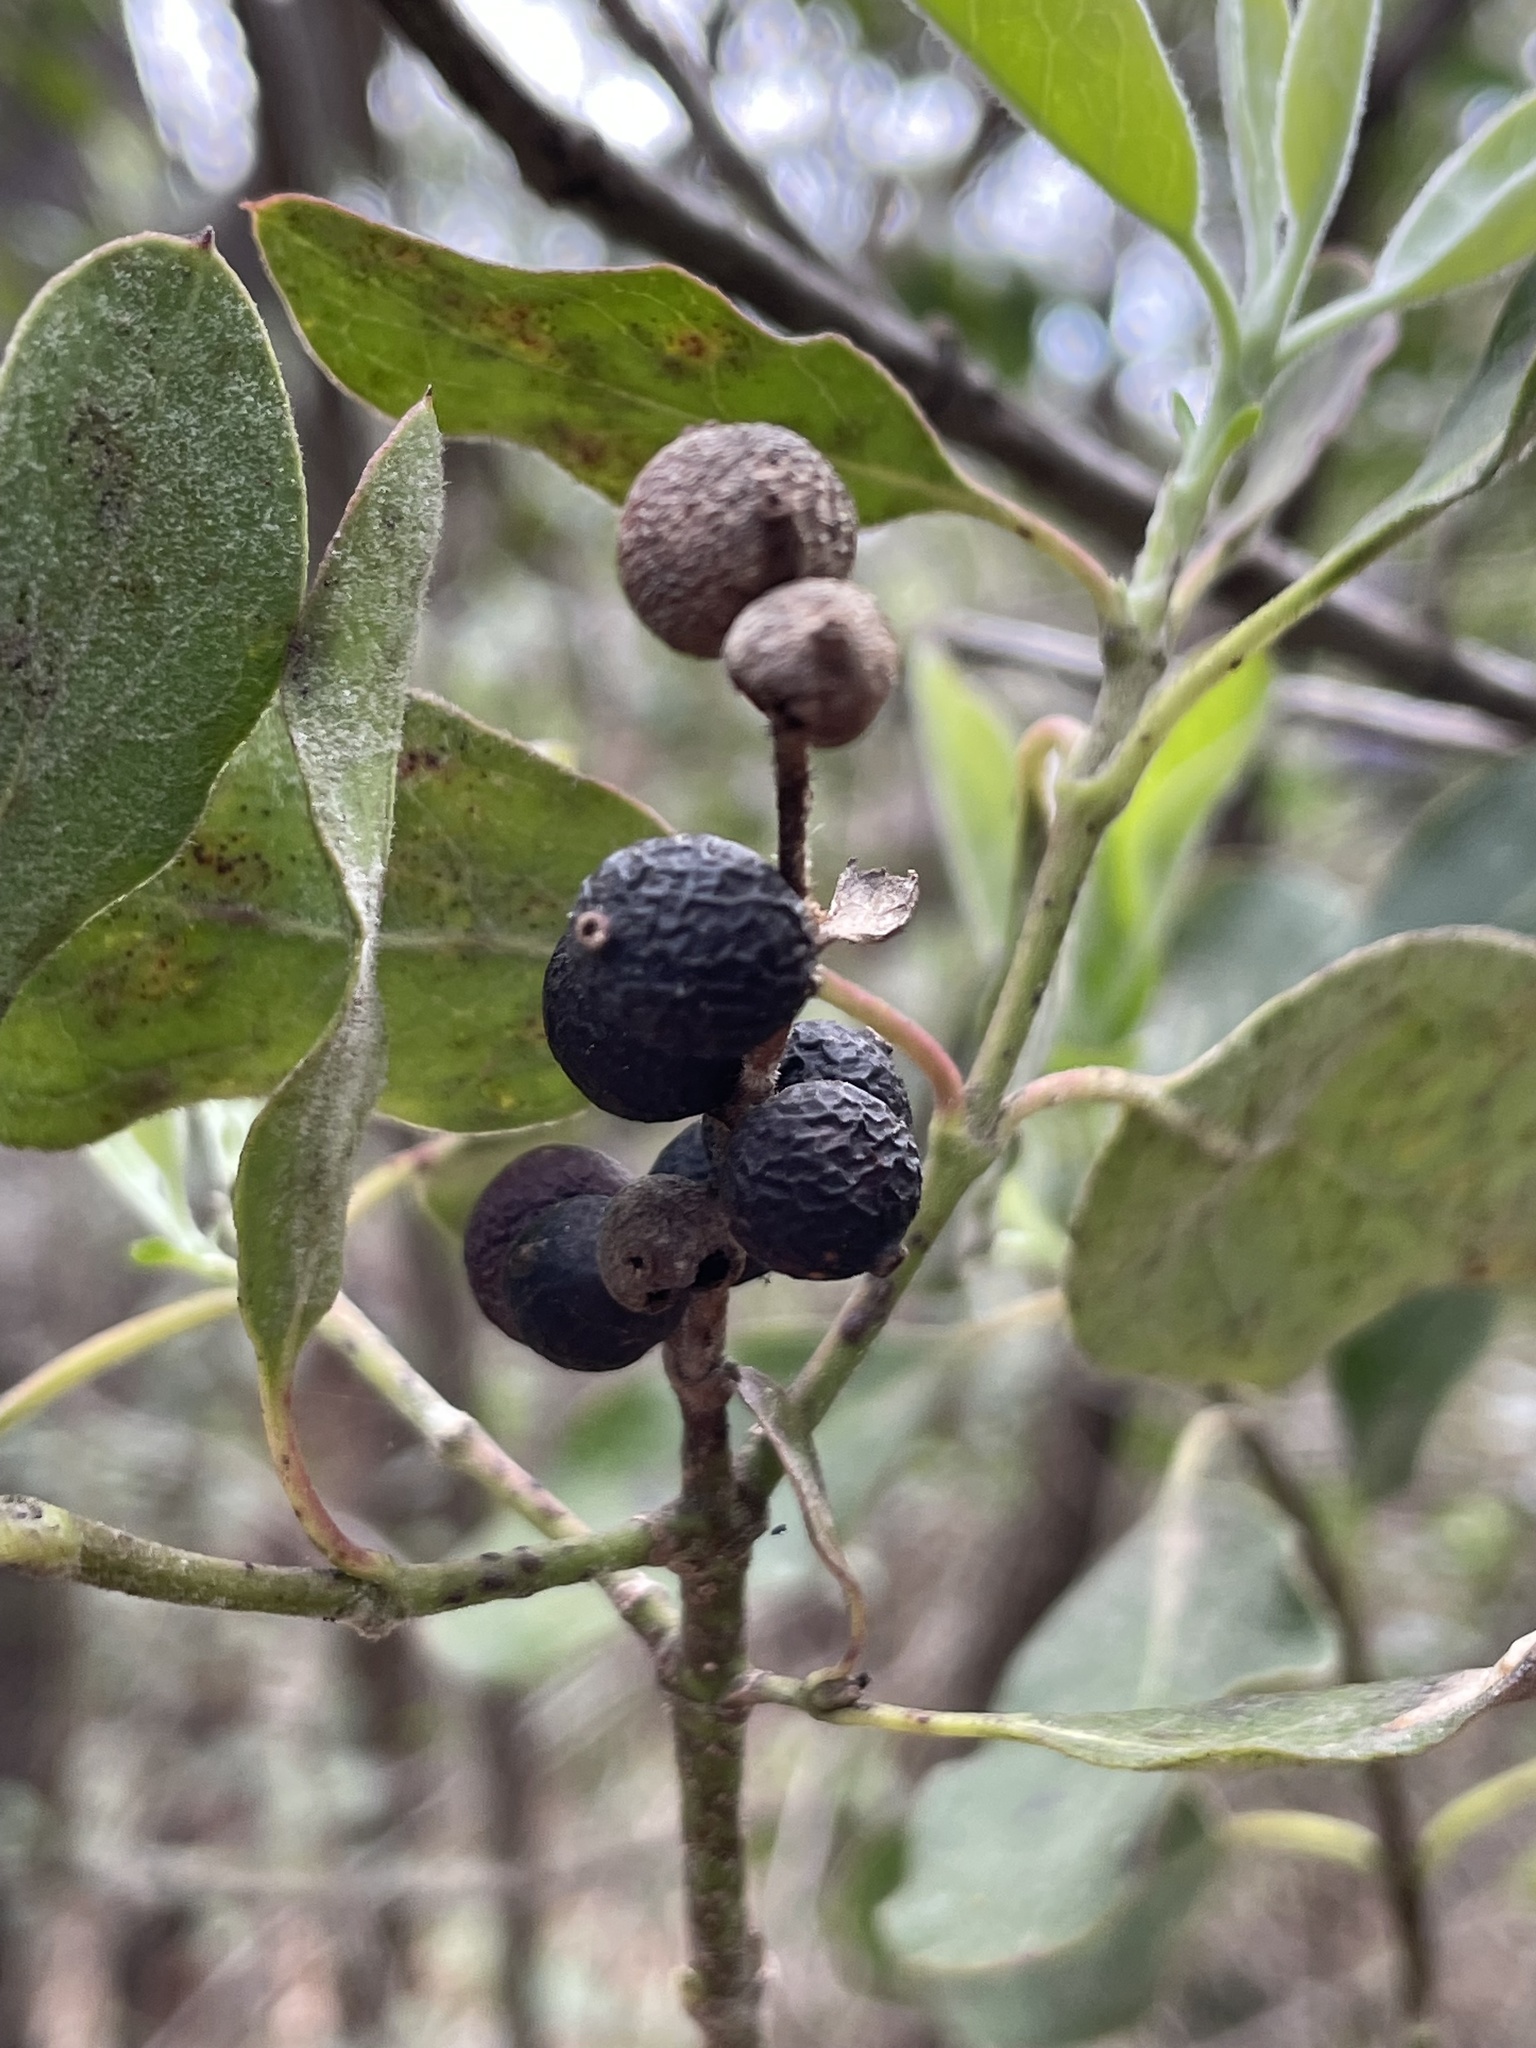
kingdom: Plantae
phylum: Tracheophyta
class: Magnoliopsida
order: Garryales
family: Garryaceae
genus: Garrya
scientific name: Garrya lindheimeri
